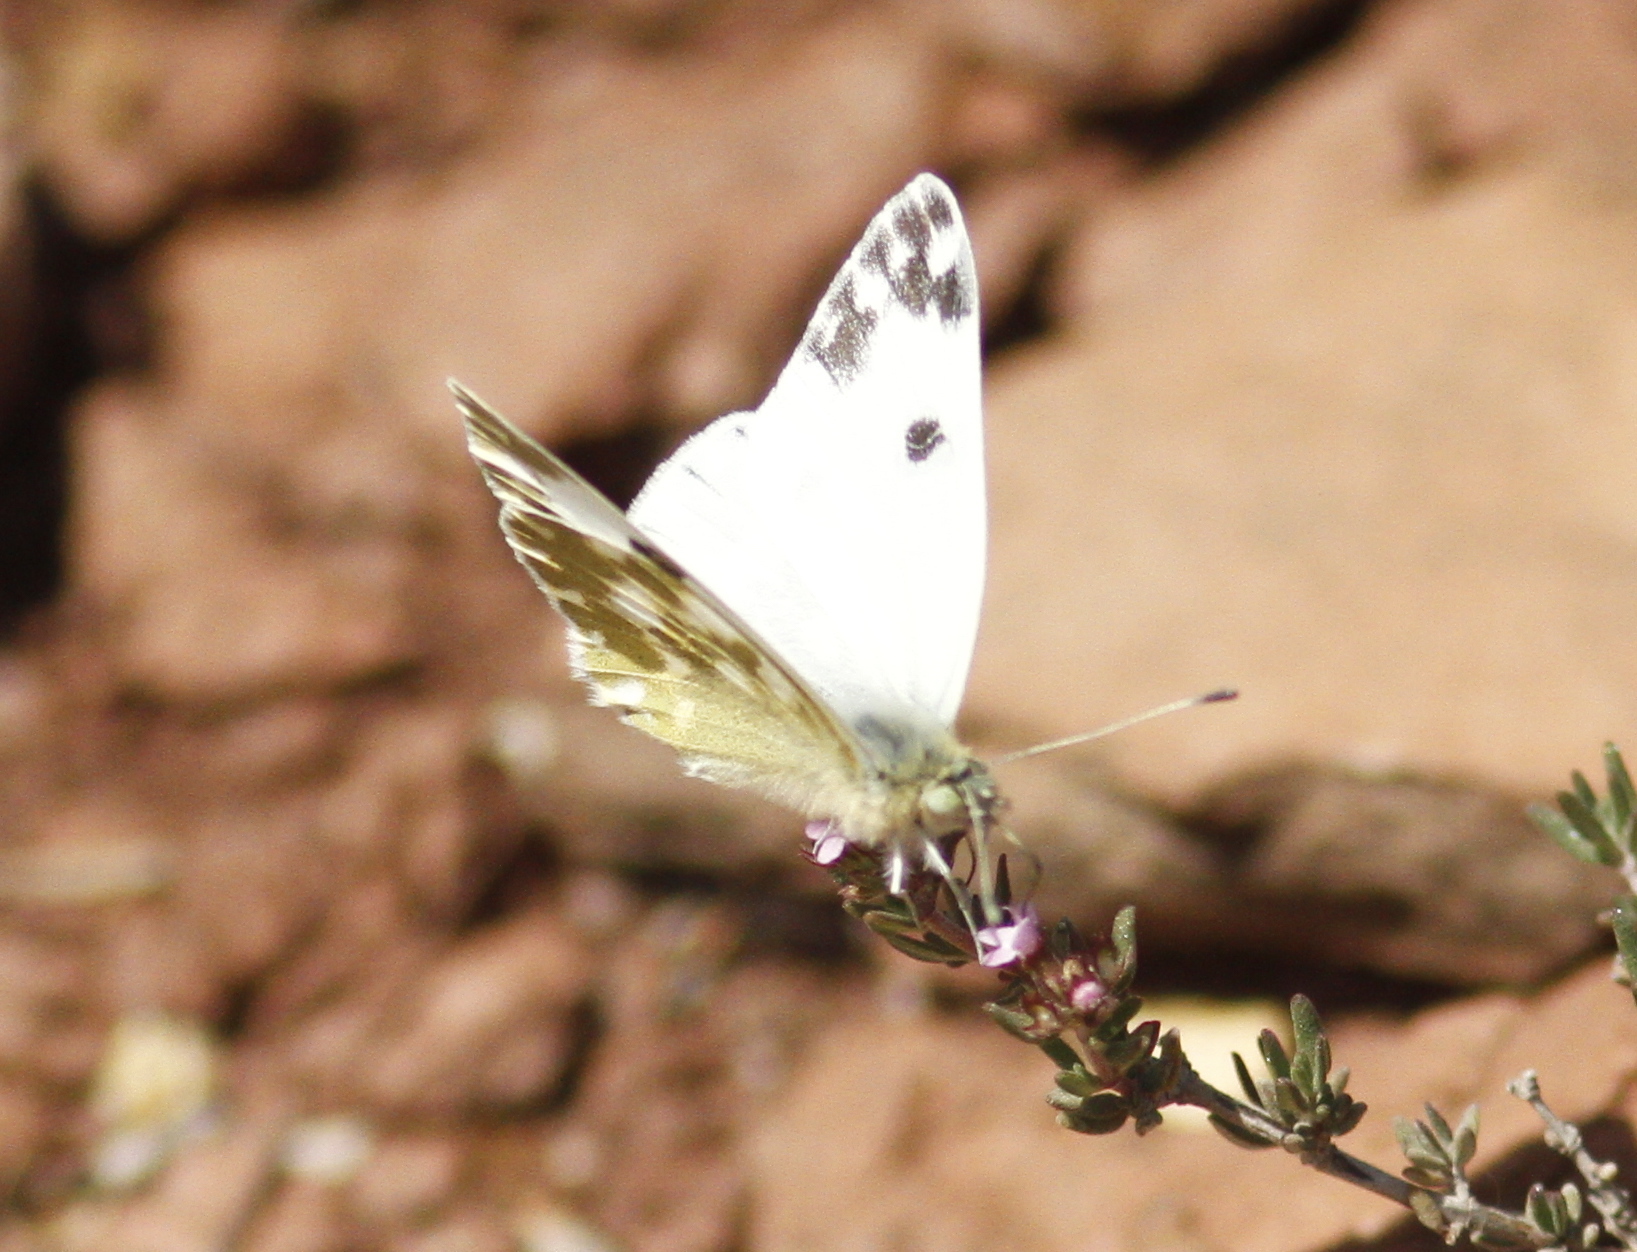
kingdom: Animalia
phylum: Arthropoda
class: Insecta
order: Lepidoptera
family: Pieridae
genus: Pontia
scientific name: Pontia daplidice
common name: Bath white
